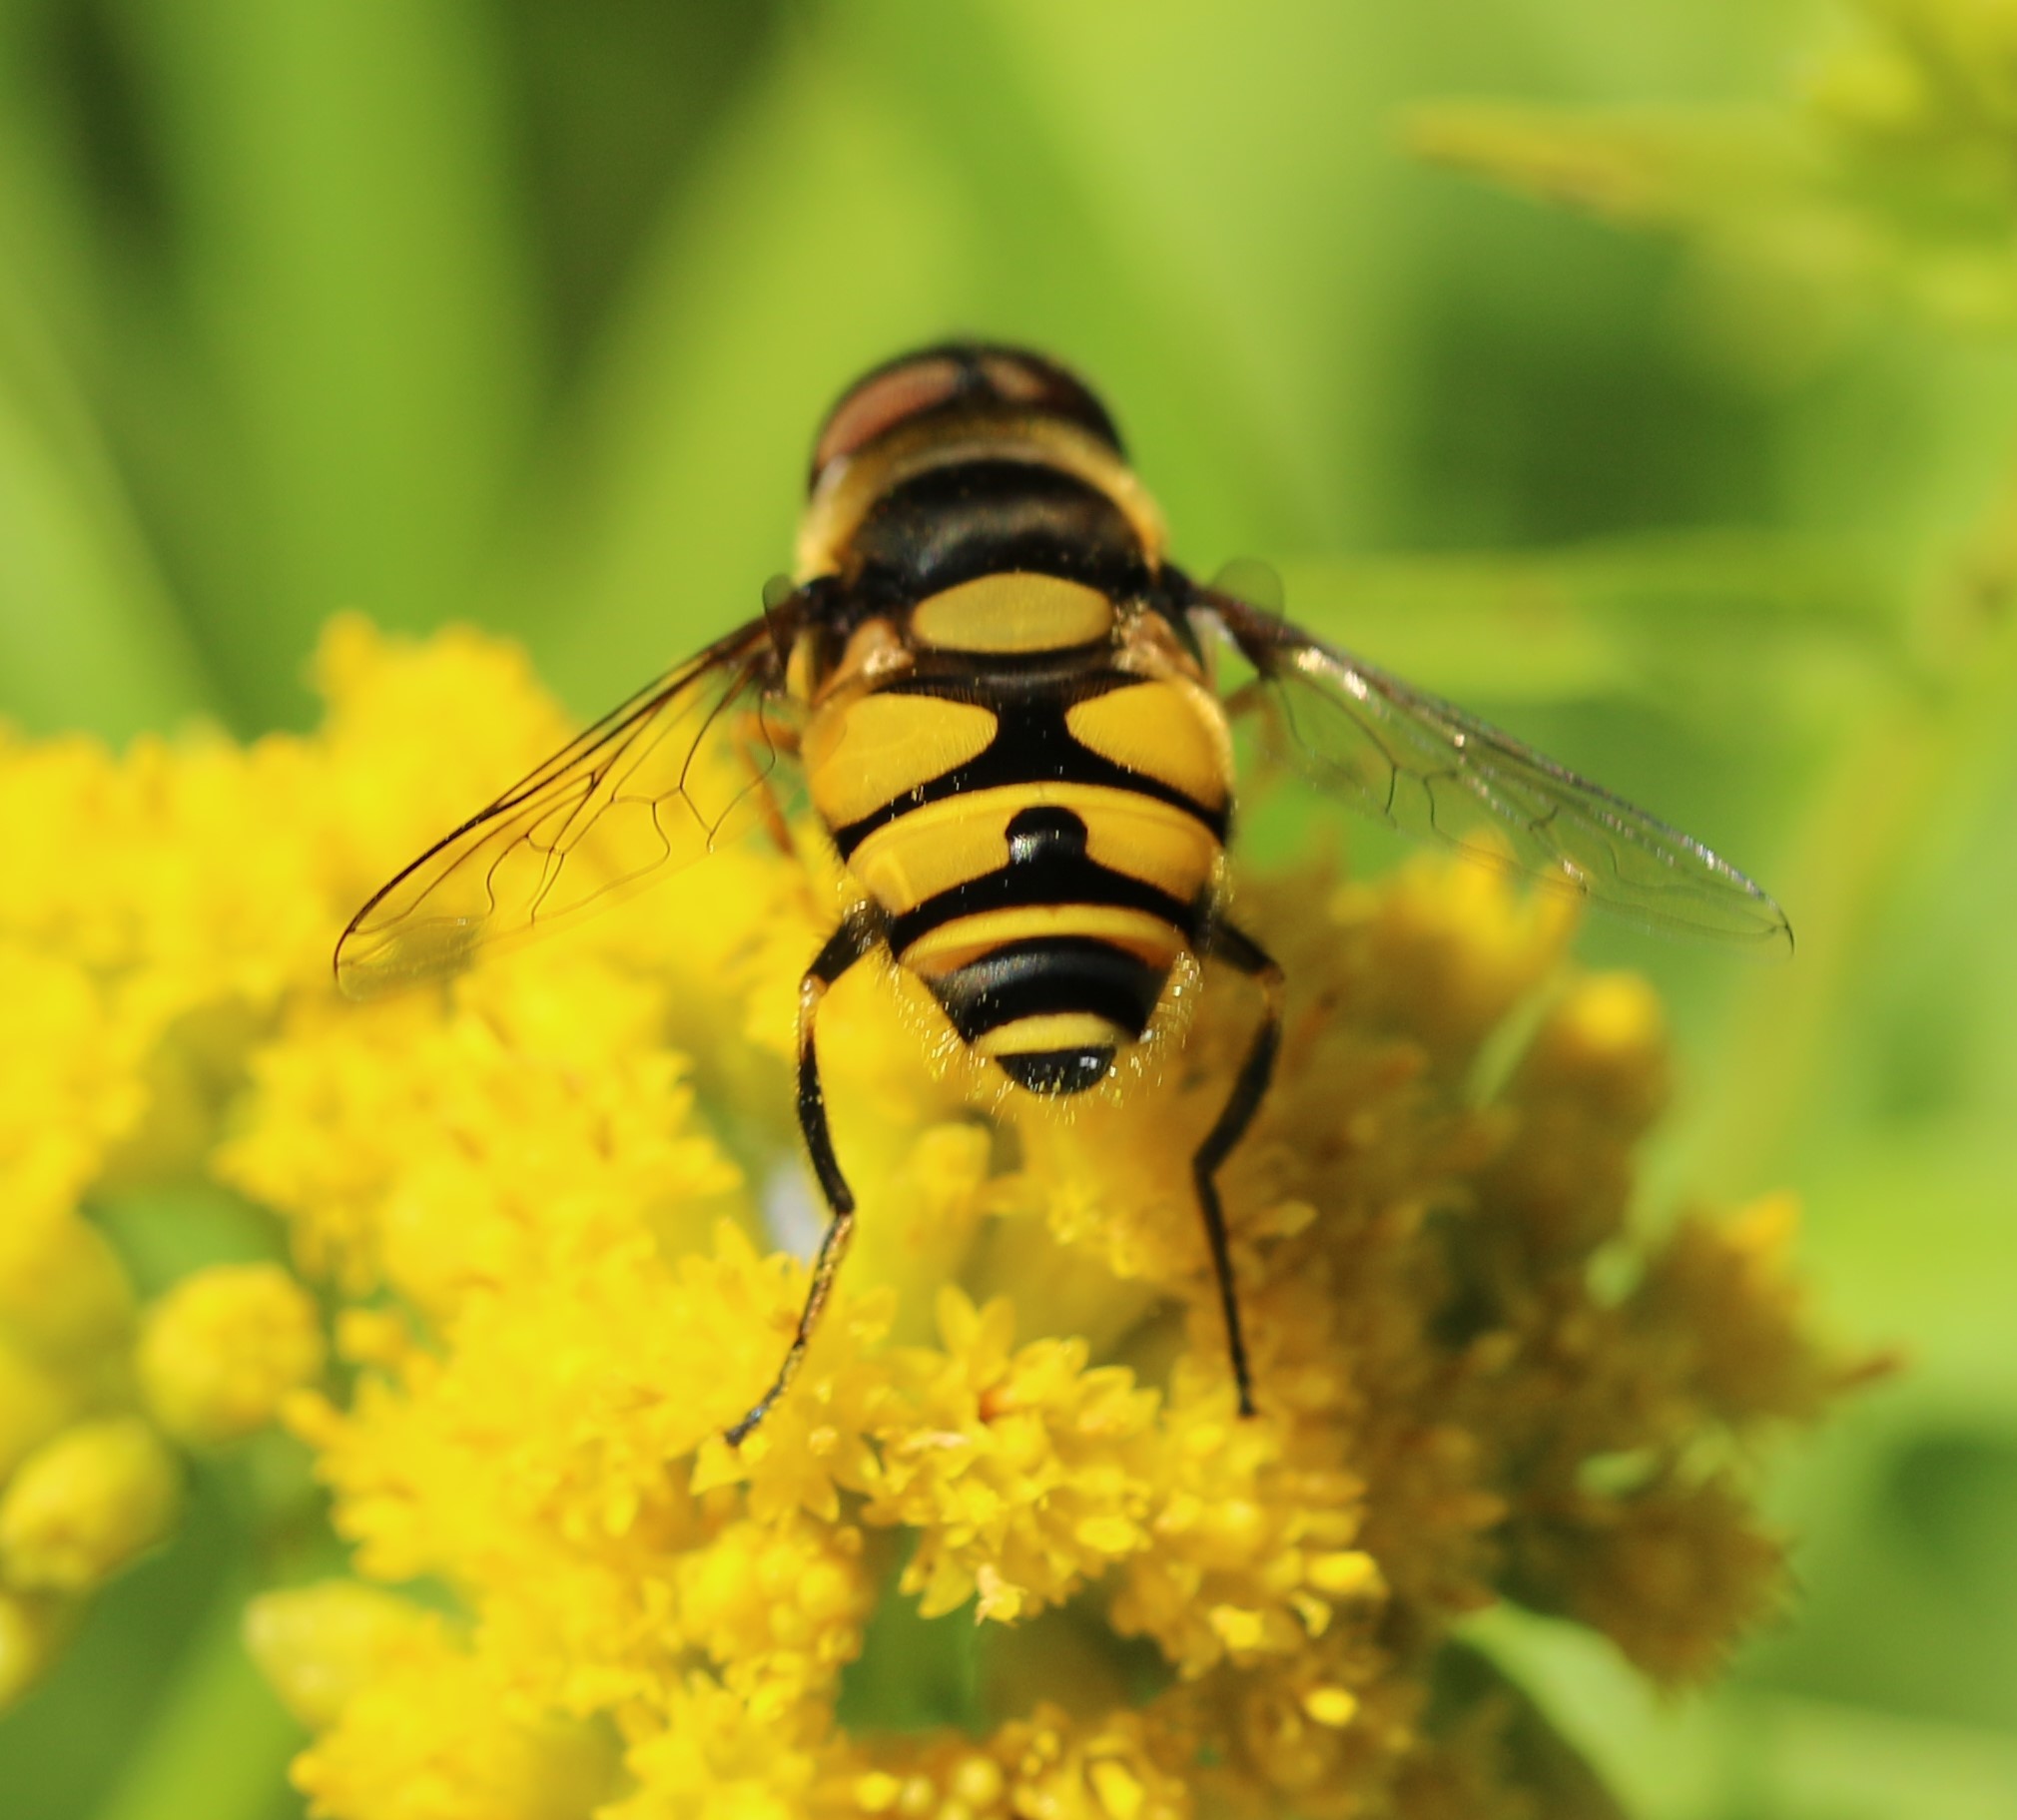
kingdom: Animalia
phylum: Arthropoda
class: Insecta
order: Diptera
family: Syrphidae
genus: Eristalis
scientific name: Eristalis transversa
